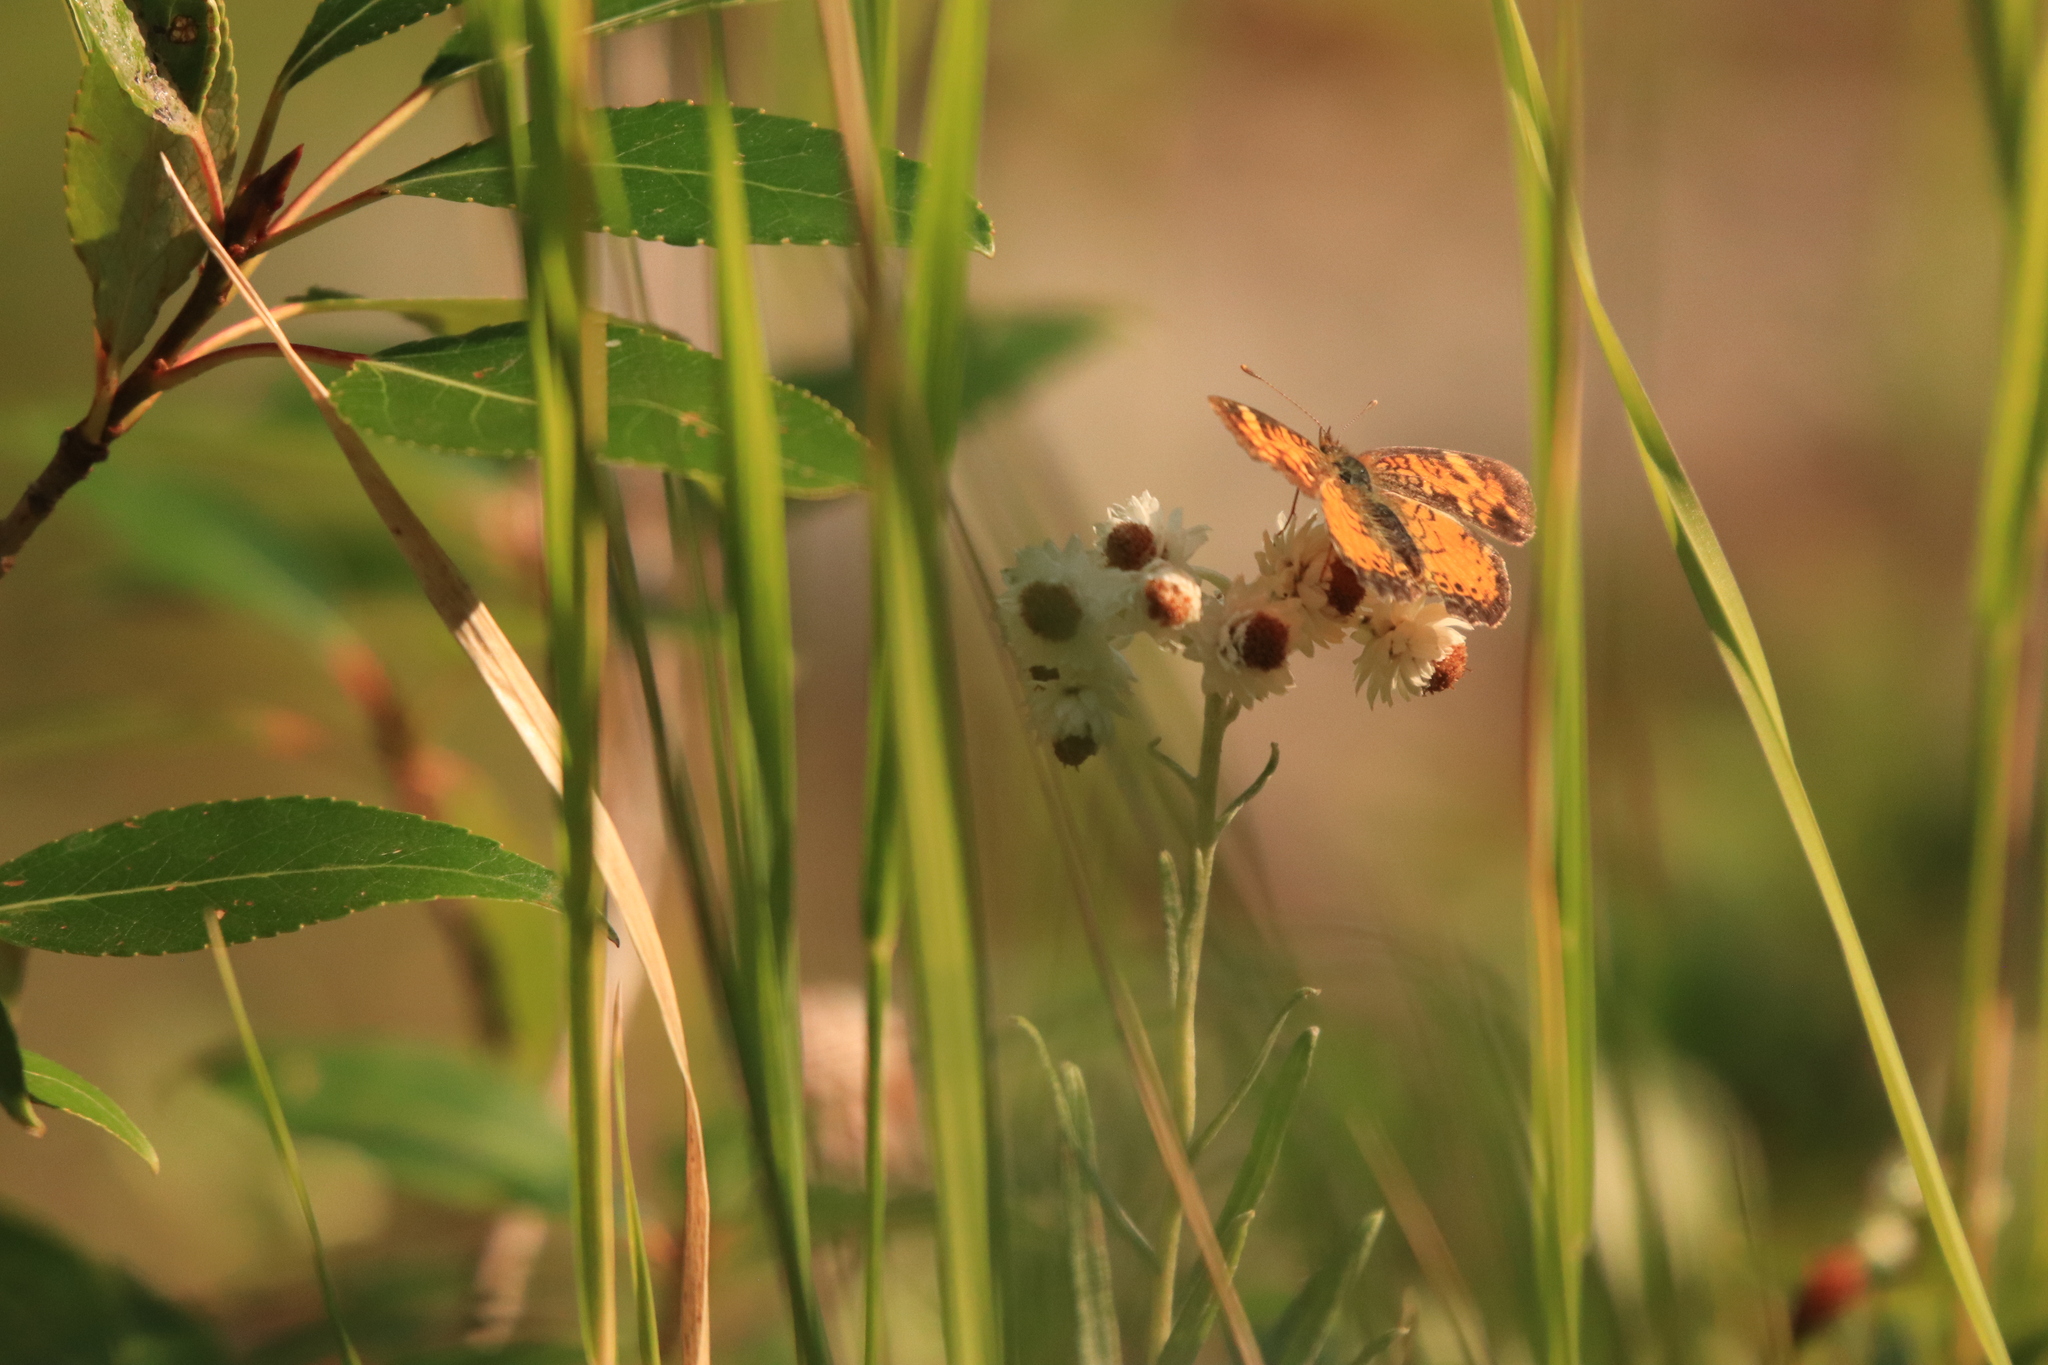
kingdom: Animalia
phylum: Arthropoda
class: Insecta
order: Lepidoptera
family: Nymphalidae
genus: Phyciodes
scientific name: Phyciodes tharos
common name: Pearl crescent
